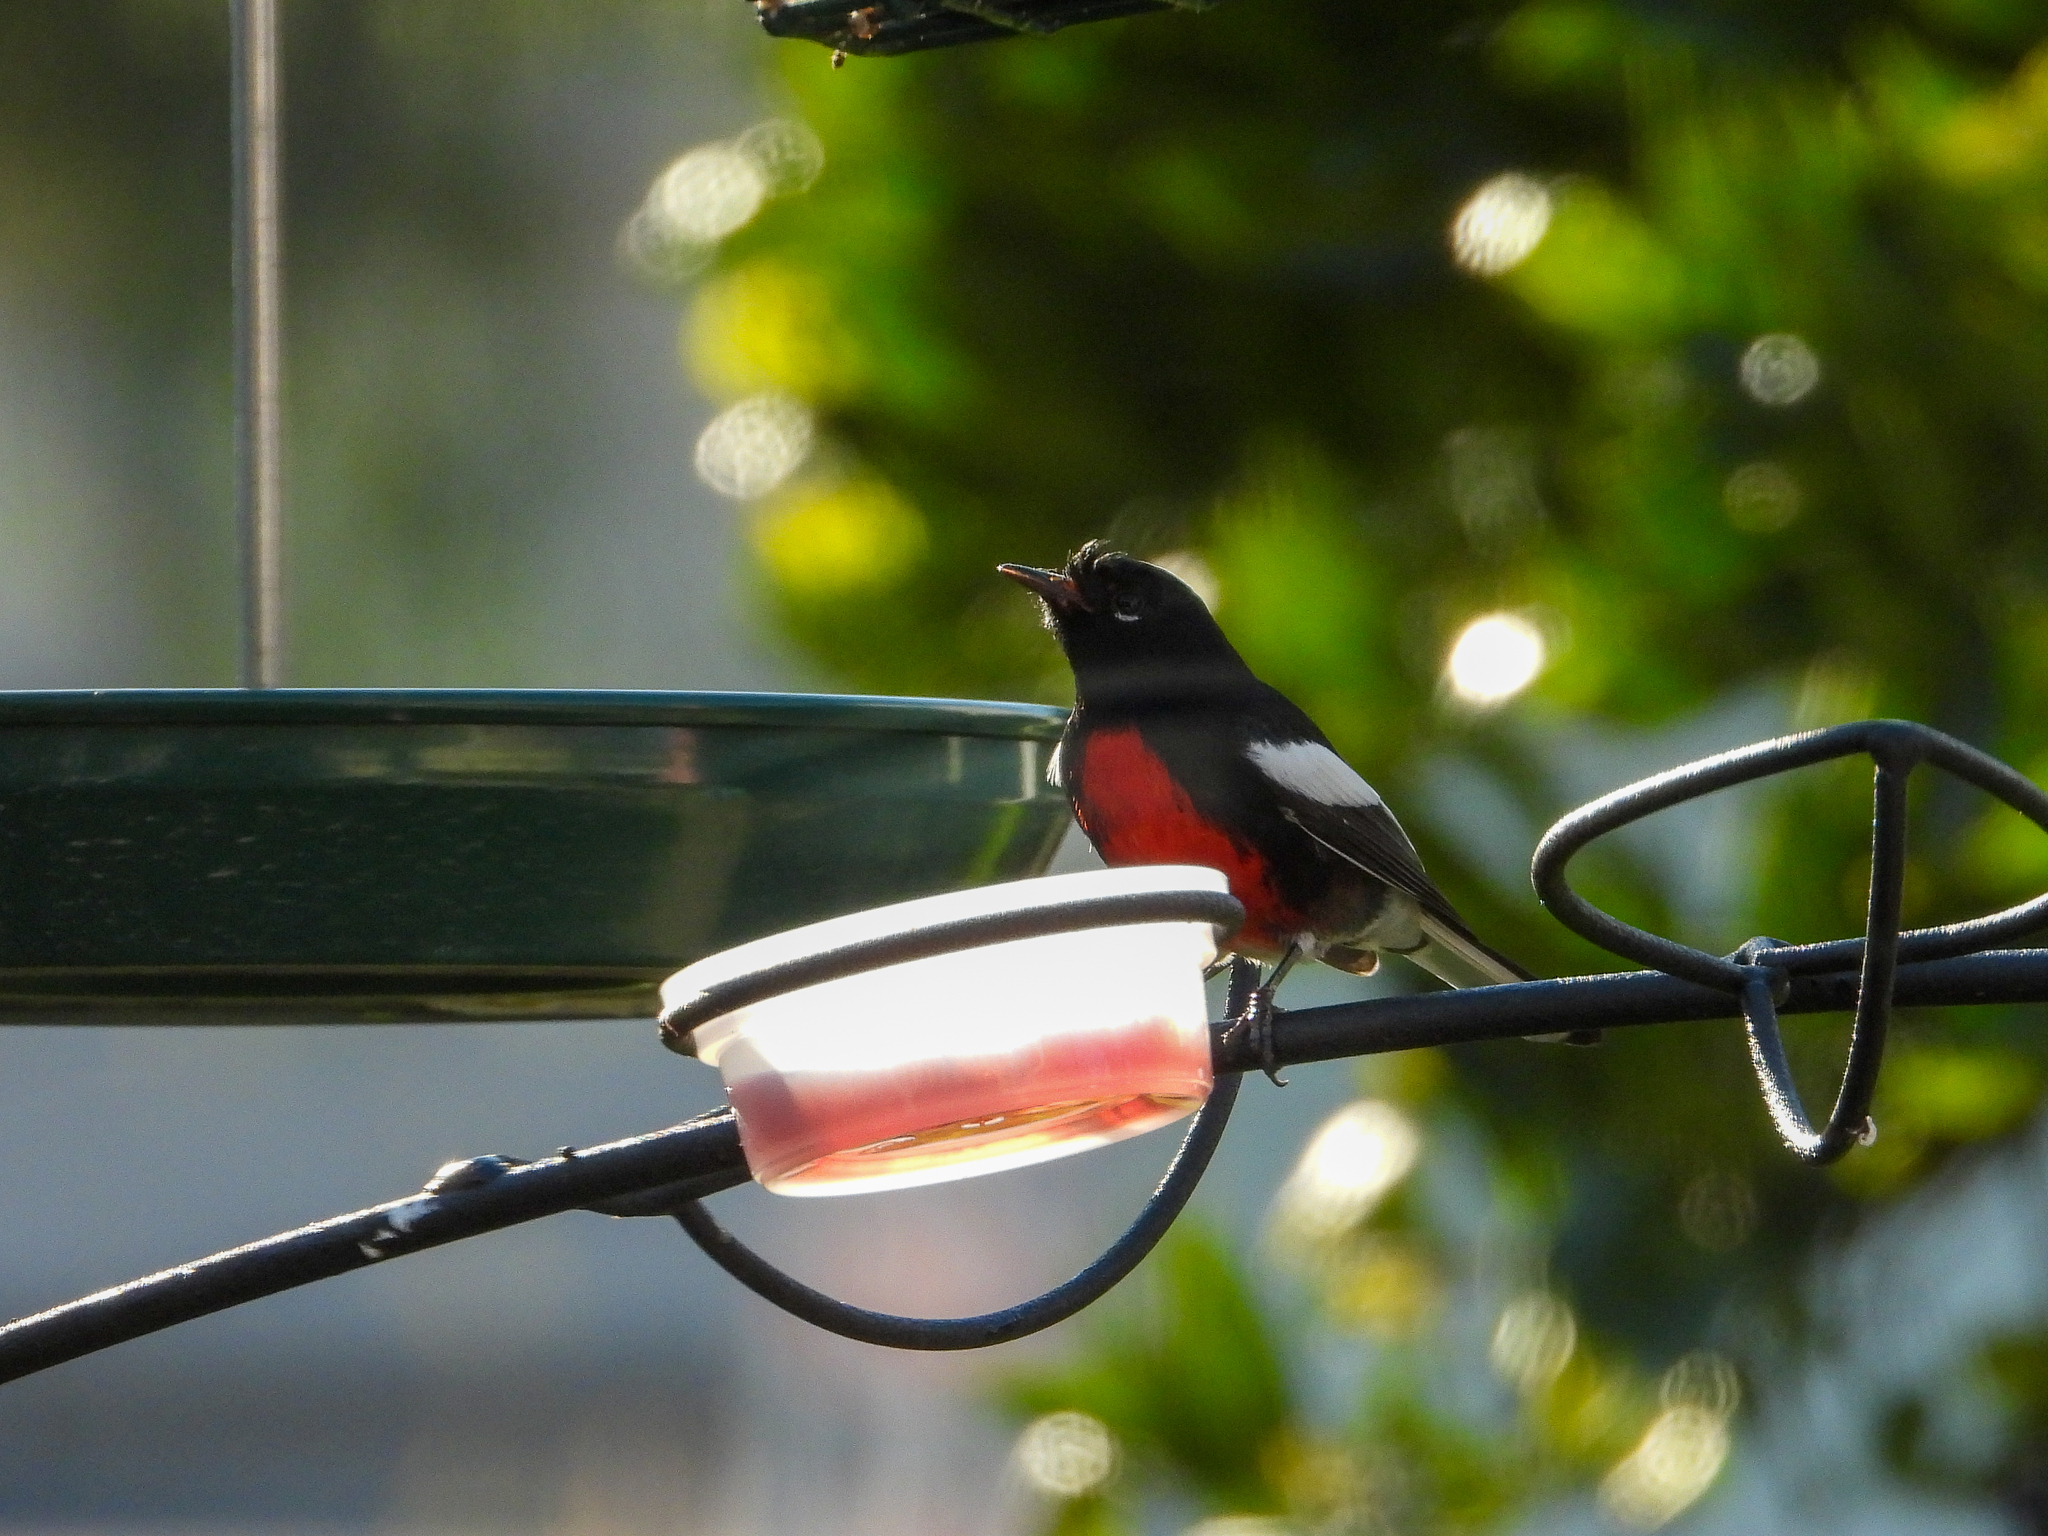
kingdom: Animalia
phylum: Chordata
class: Aves
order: Passeriformes
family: Parulidae
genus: Myioborus
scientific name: Myioborus pictus
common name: Painted whitestart
